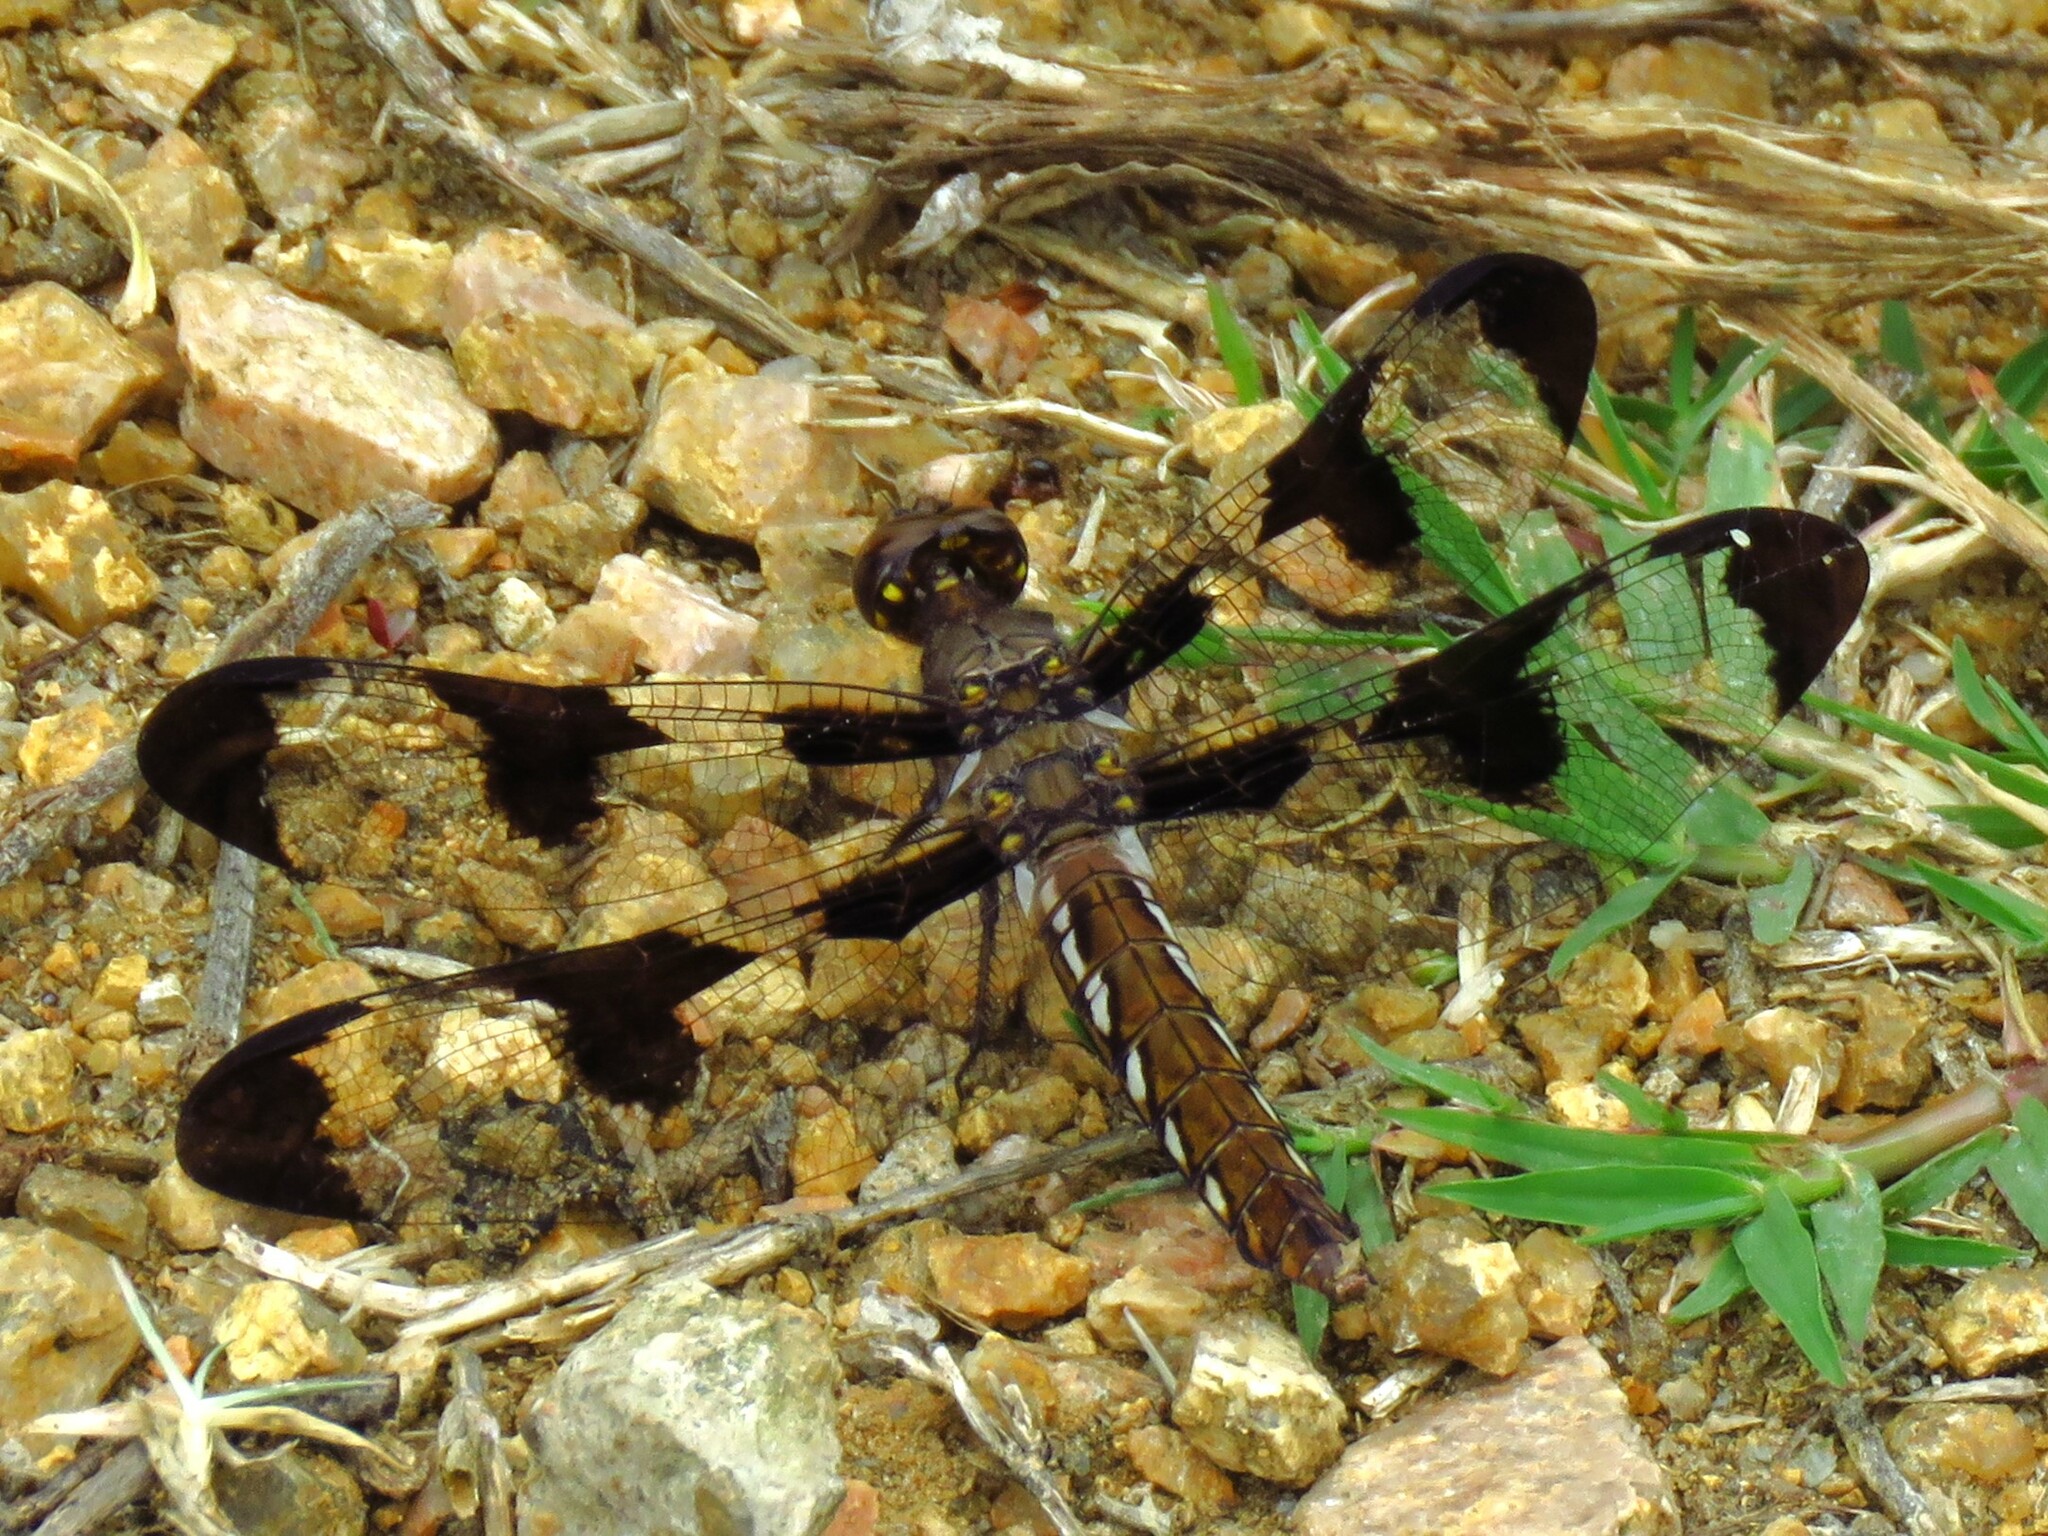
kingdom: Animalia
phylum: Arthropoda
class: Insecta
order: Odonata
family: Libellulidae
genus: Plathemis
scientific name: Plathemis lydia
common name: Common whitetail
